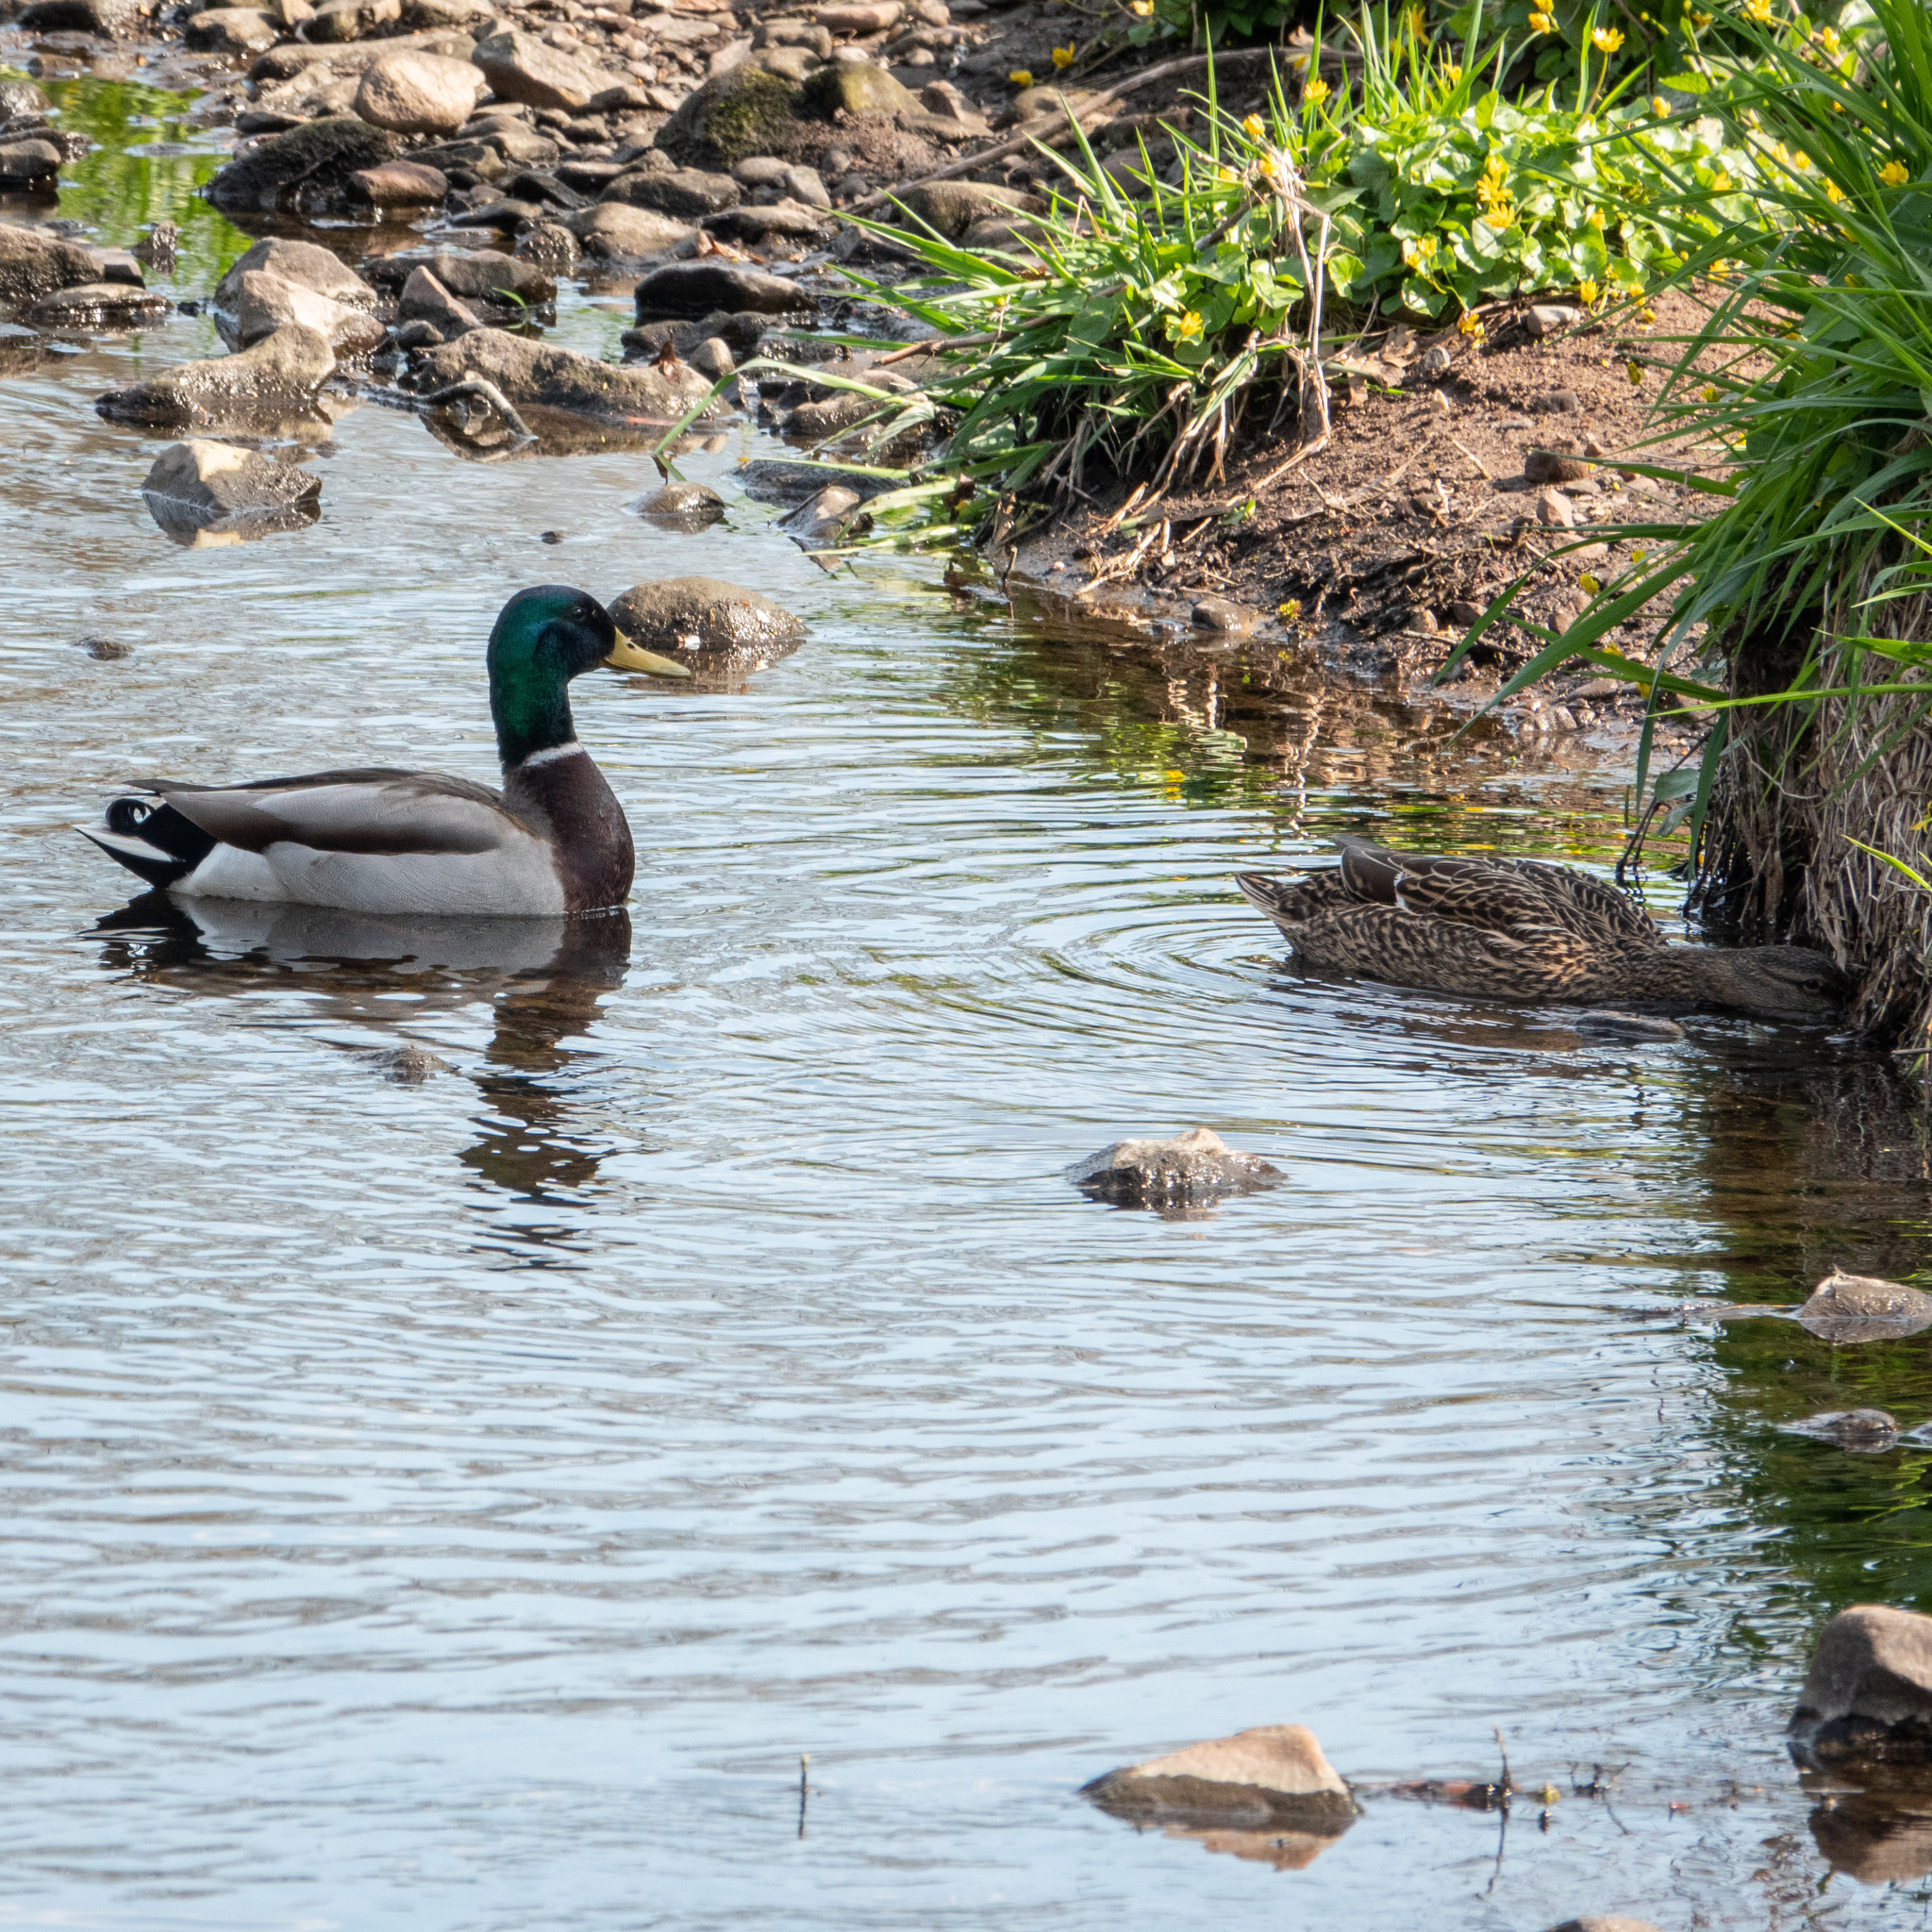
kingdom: Animalia
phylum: Chordata
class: Aves
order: Anseriformes
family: Anatidae
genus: Anas
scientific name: Anas platyrhynchos
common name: Mallard
